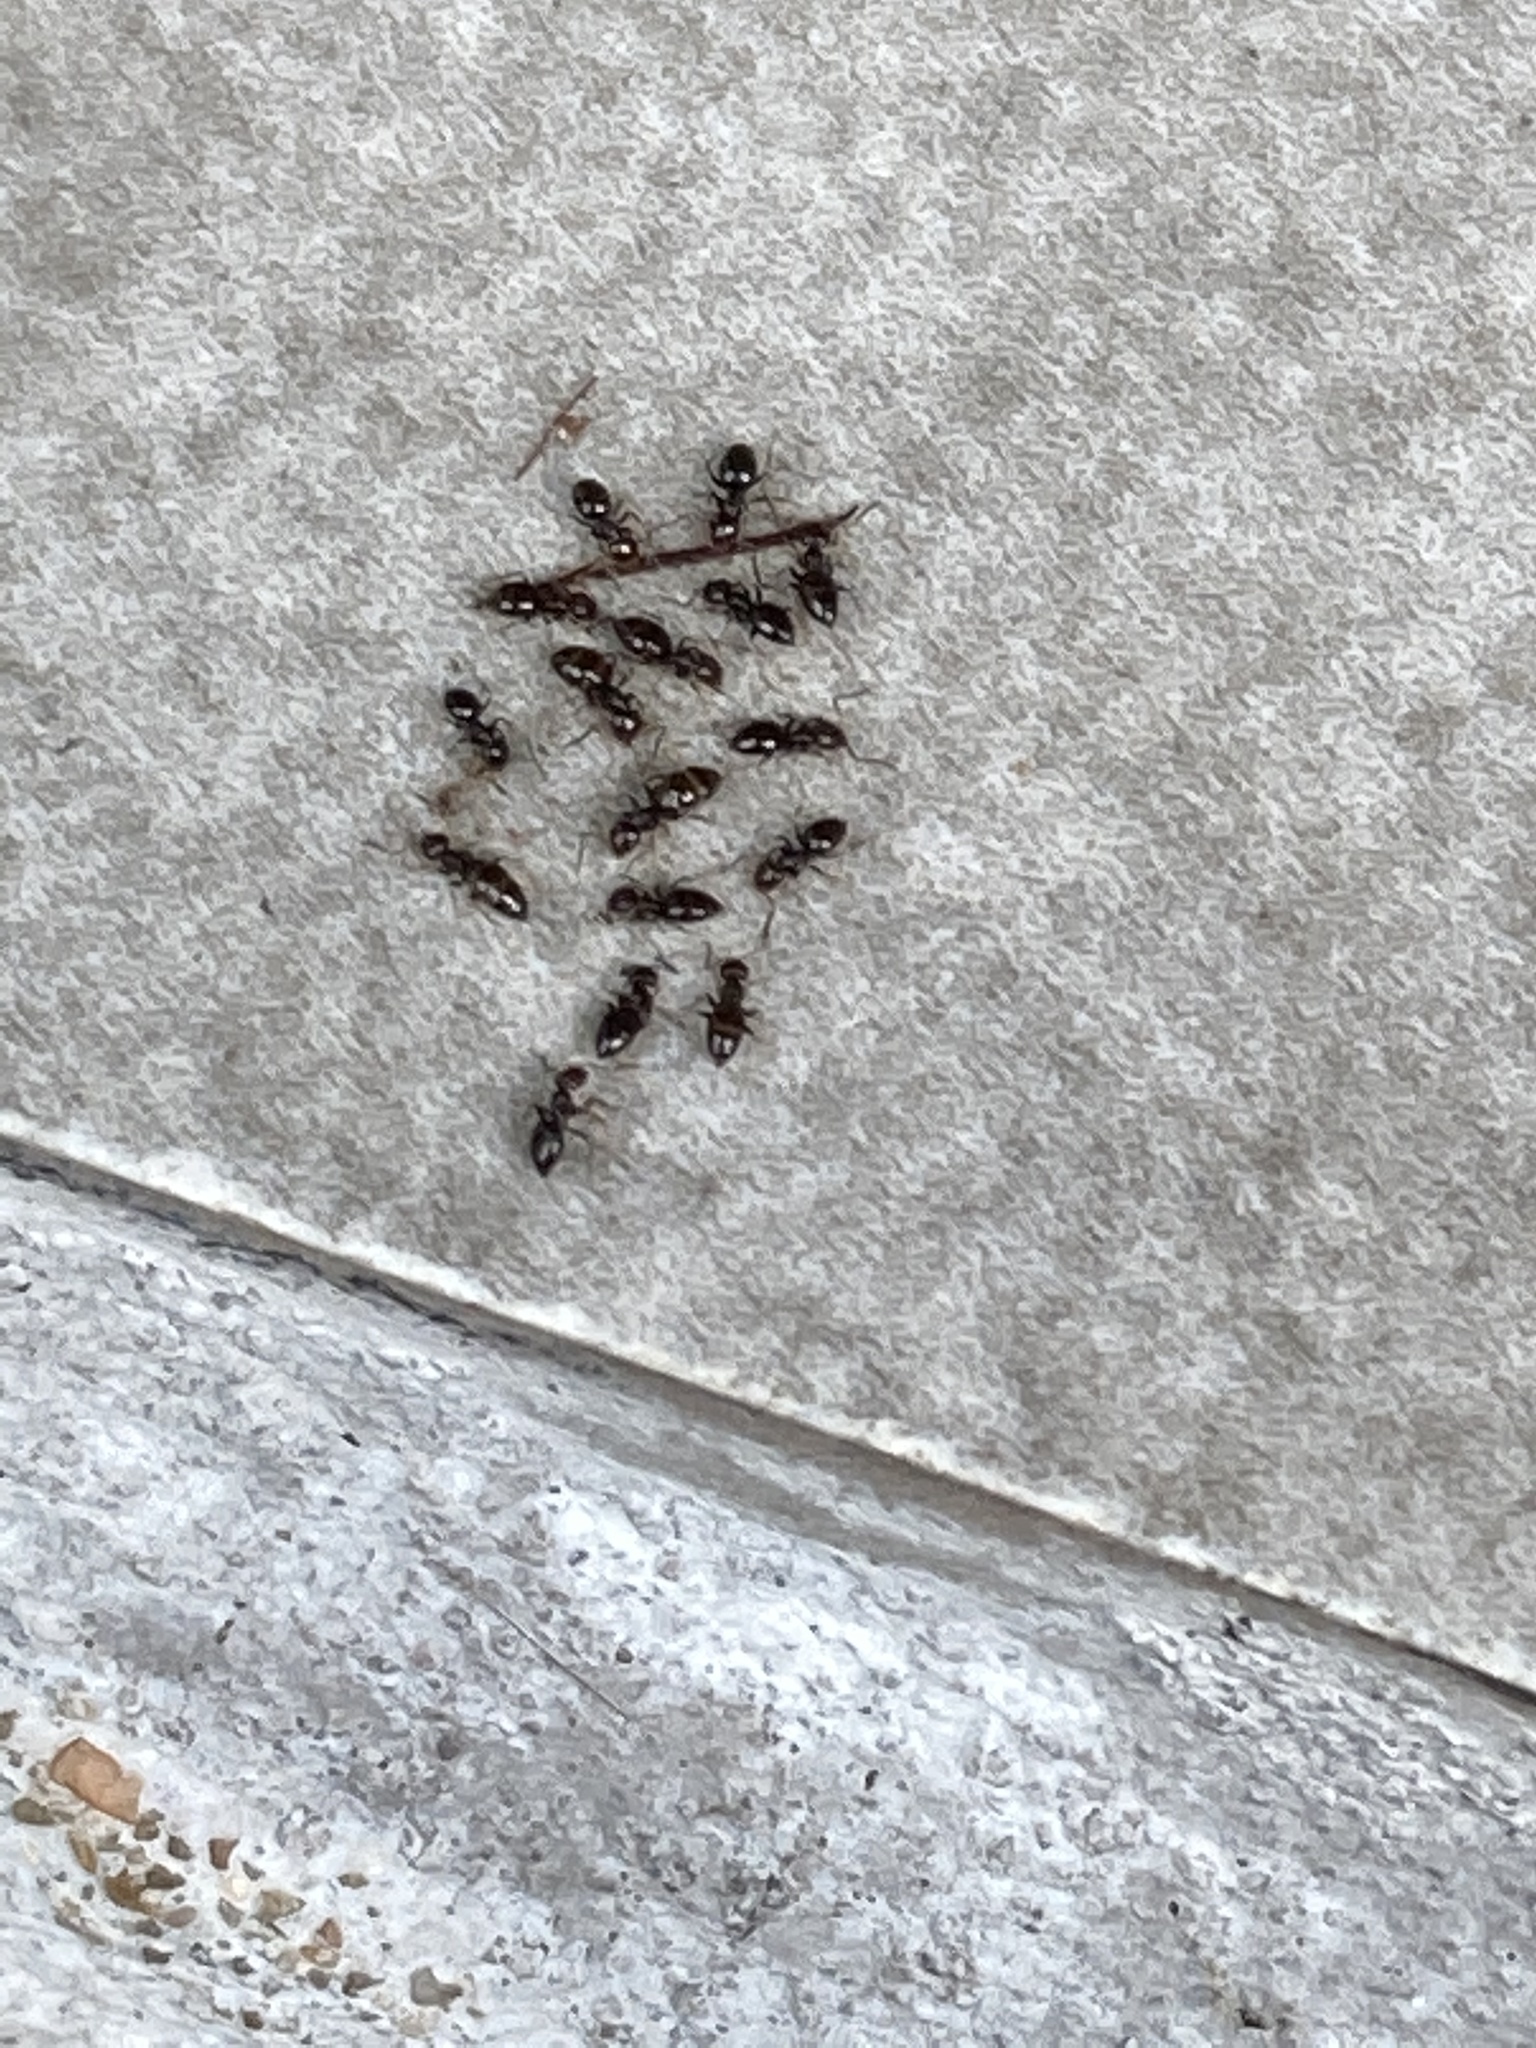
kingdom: Animalia
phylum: Arthropoda
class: Insecta
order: Hymenoptera
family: Formicidae
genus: Brachymyrmex
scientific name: Brachymyrmex patagonicus
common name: Dark rover ant
